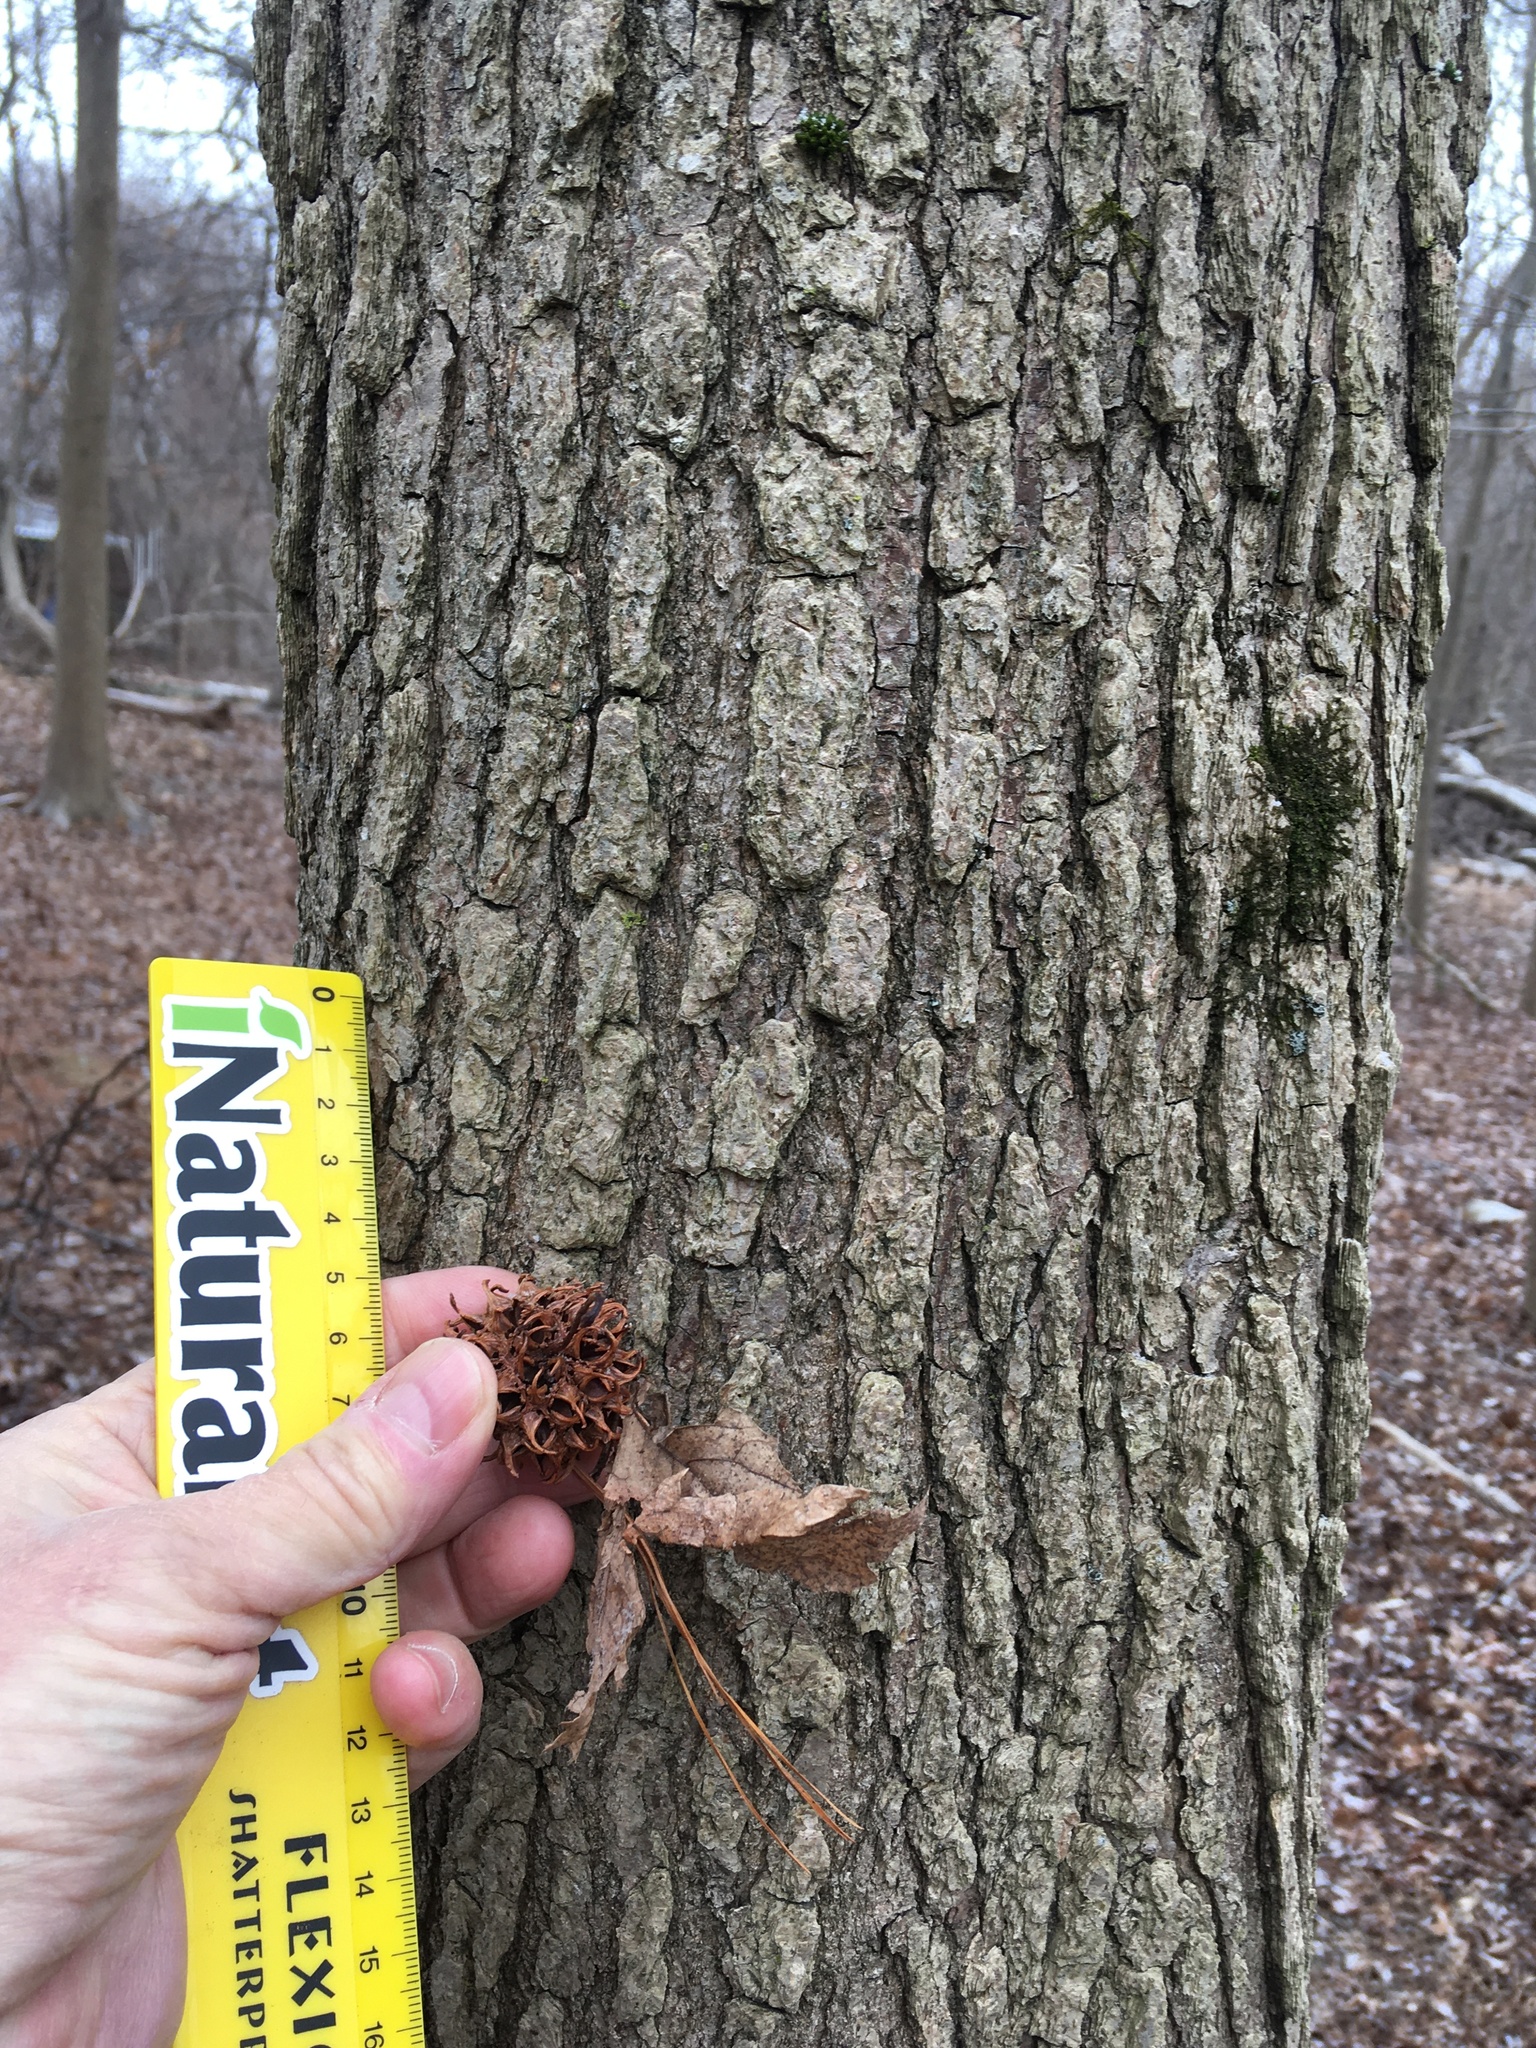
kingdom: Plantae
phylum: Tracheophyta
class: Magnoliopsida
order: Saxifragales
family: Altingiaceae
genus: Liquidambar
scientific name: Liquidambar styraciflua
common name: Sweet gum
